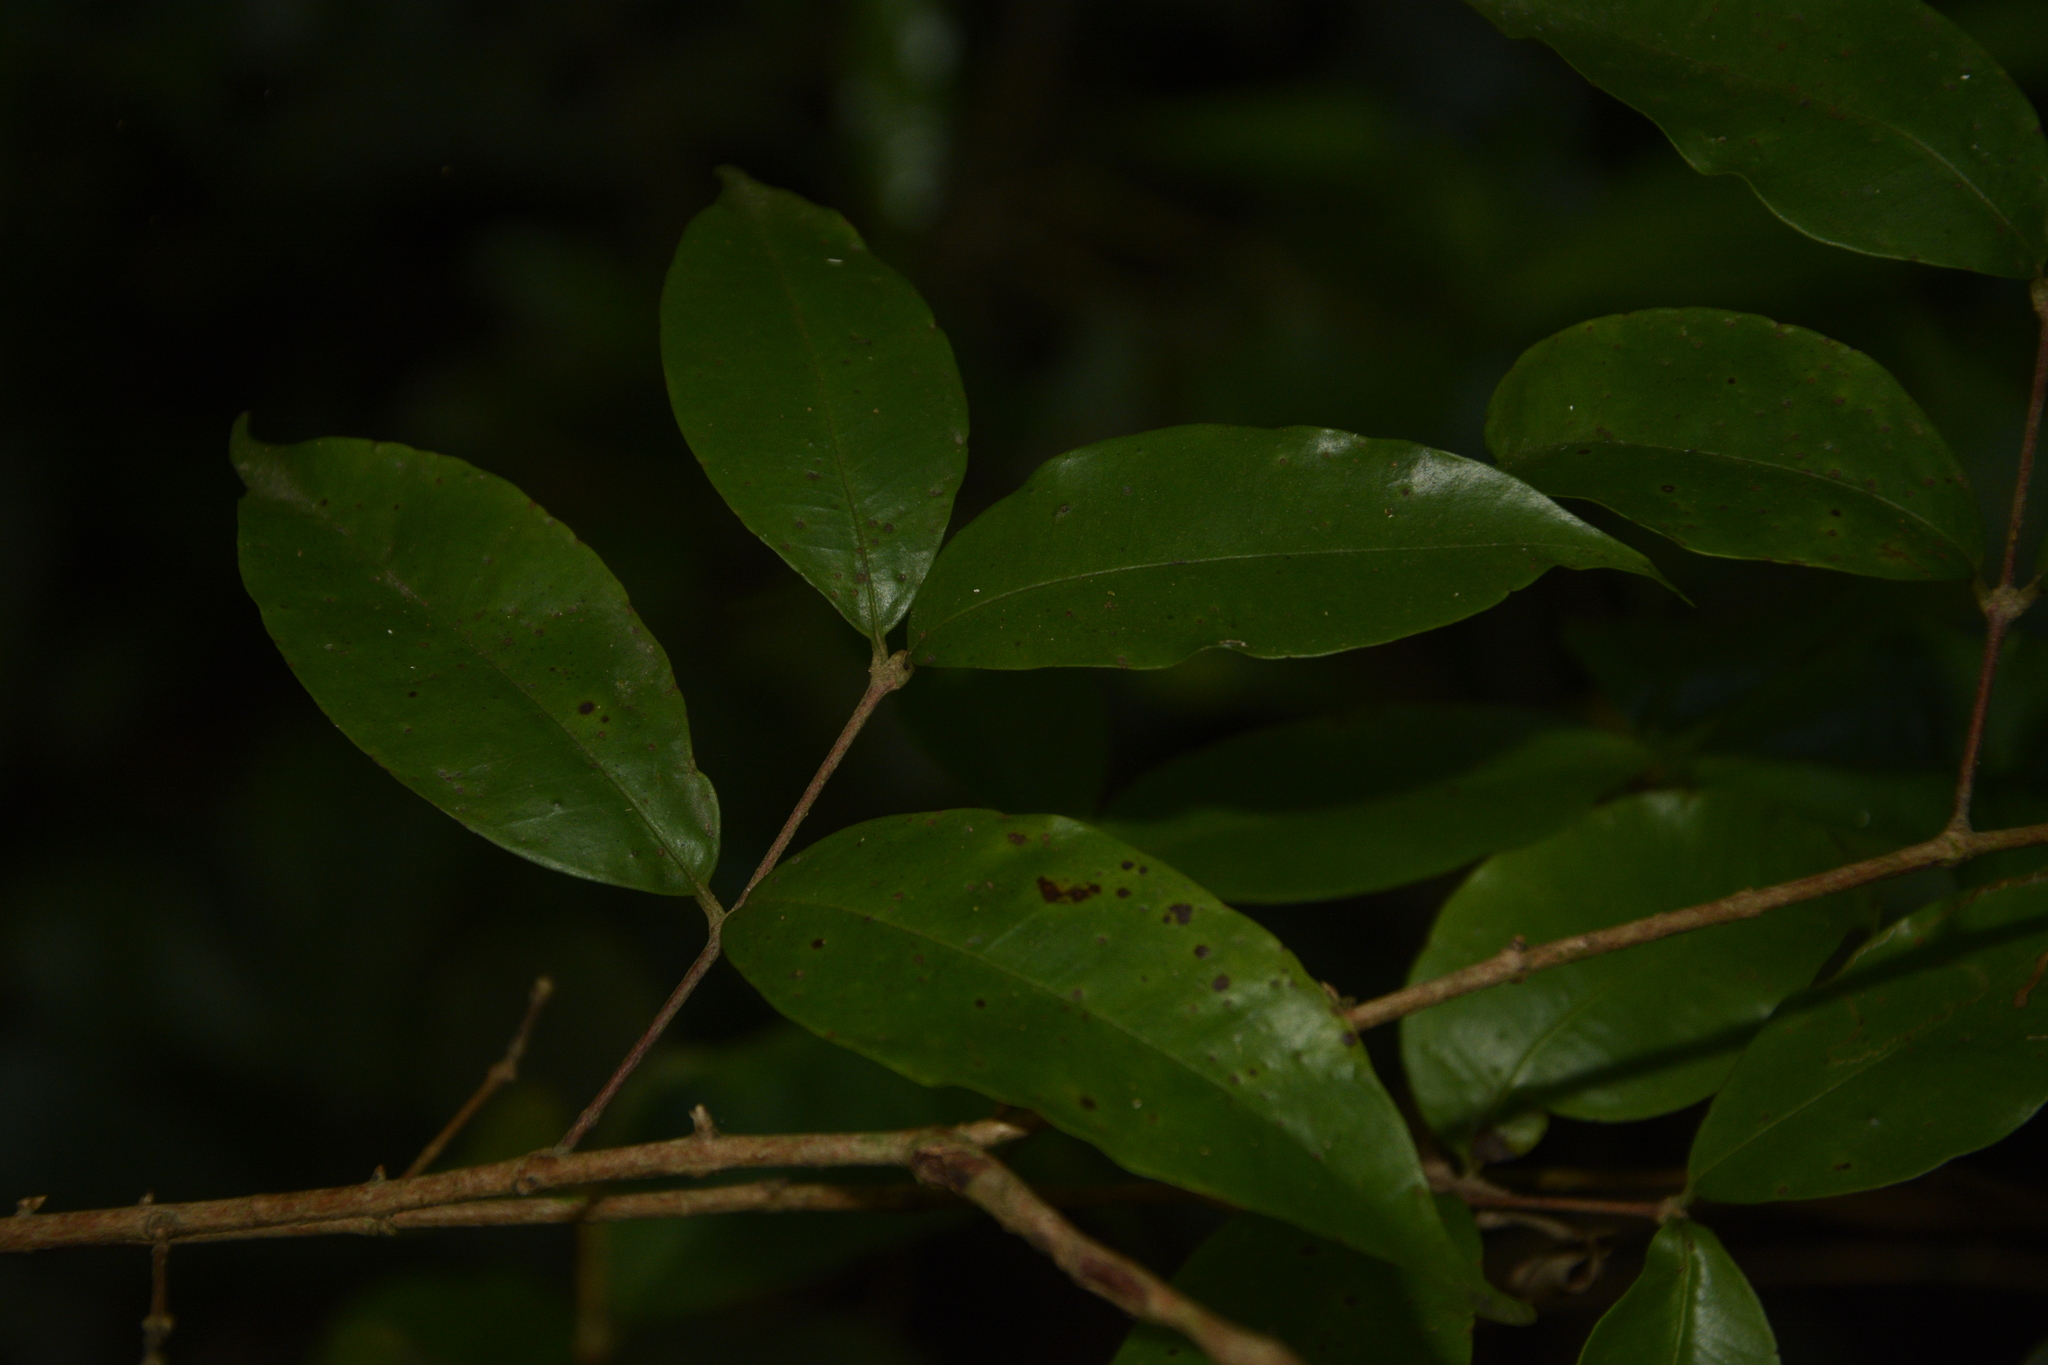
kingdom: Plantae
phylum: Tracheophyta
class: Magnoliopsida
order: Myrtales
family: Myrtaceae
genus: Eugenia
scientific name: Eugenia aloysii
